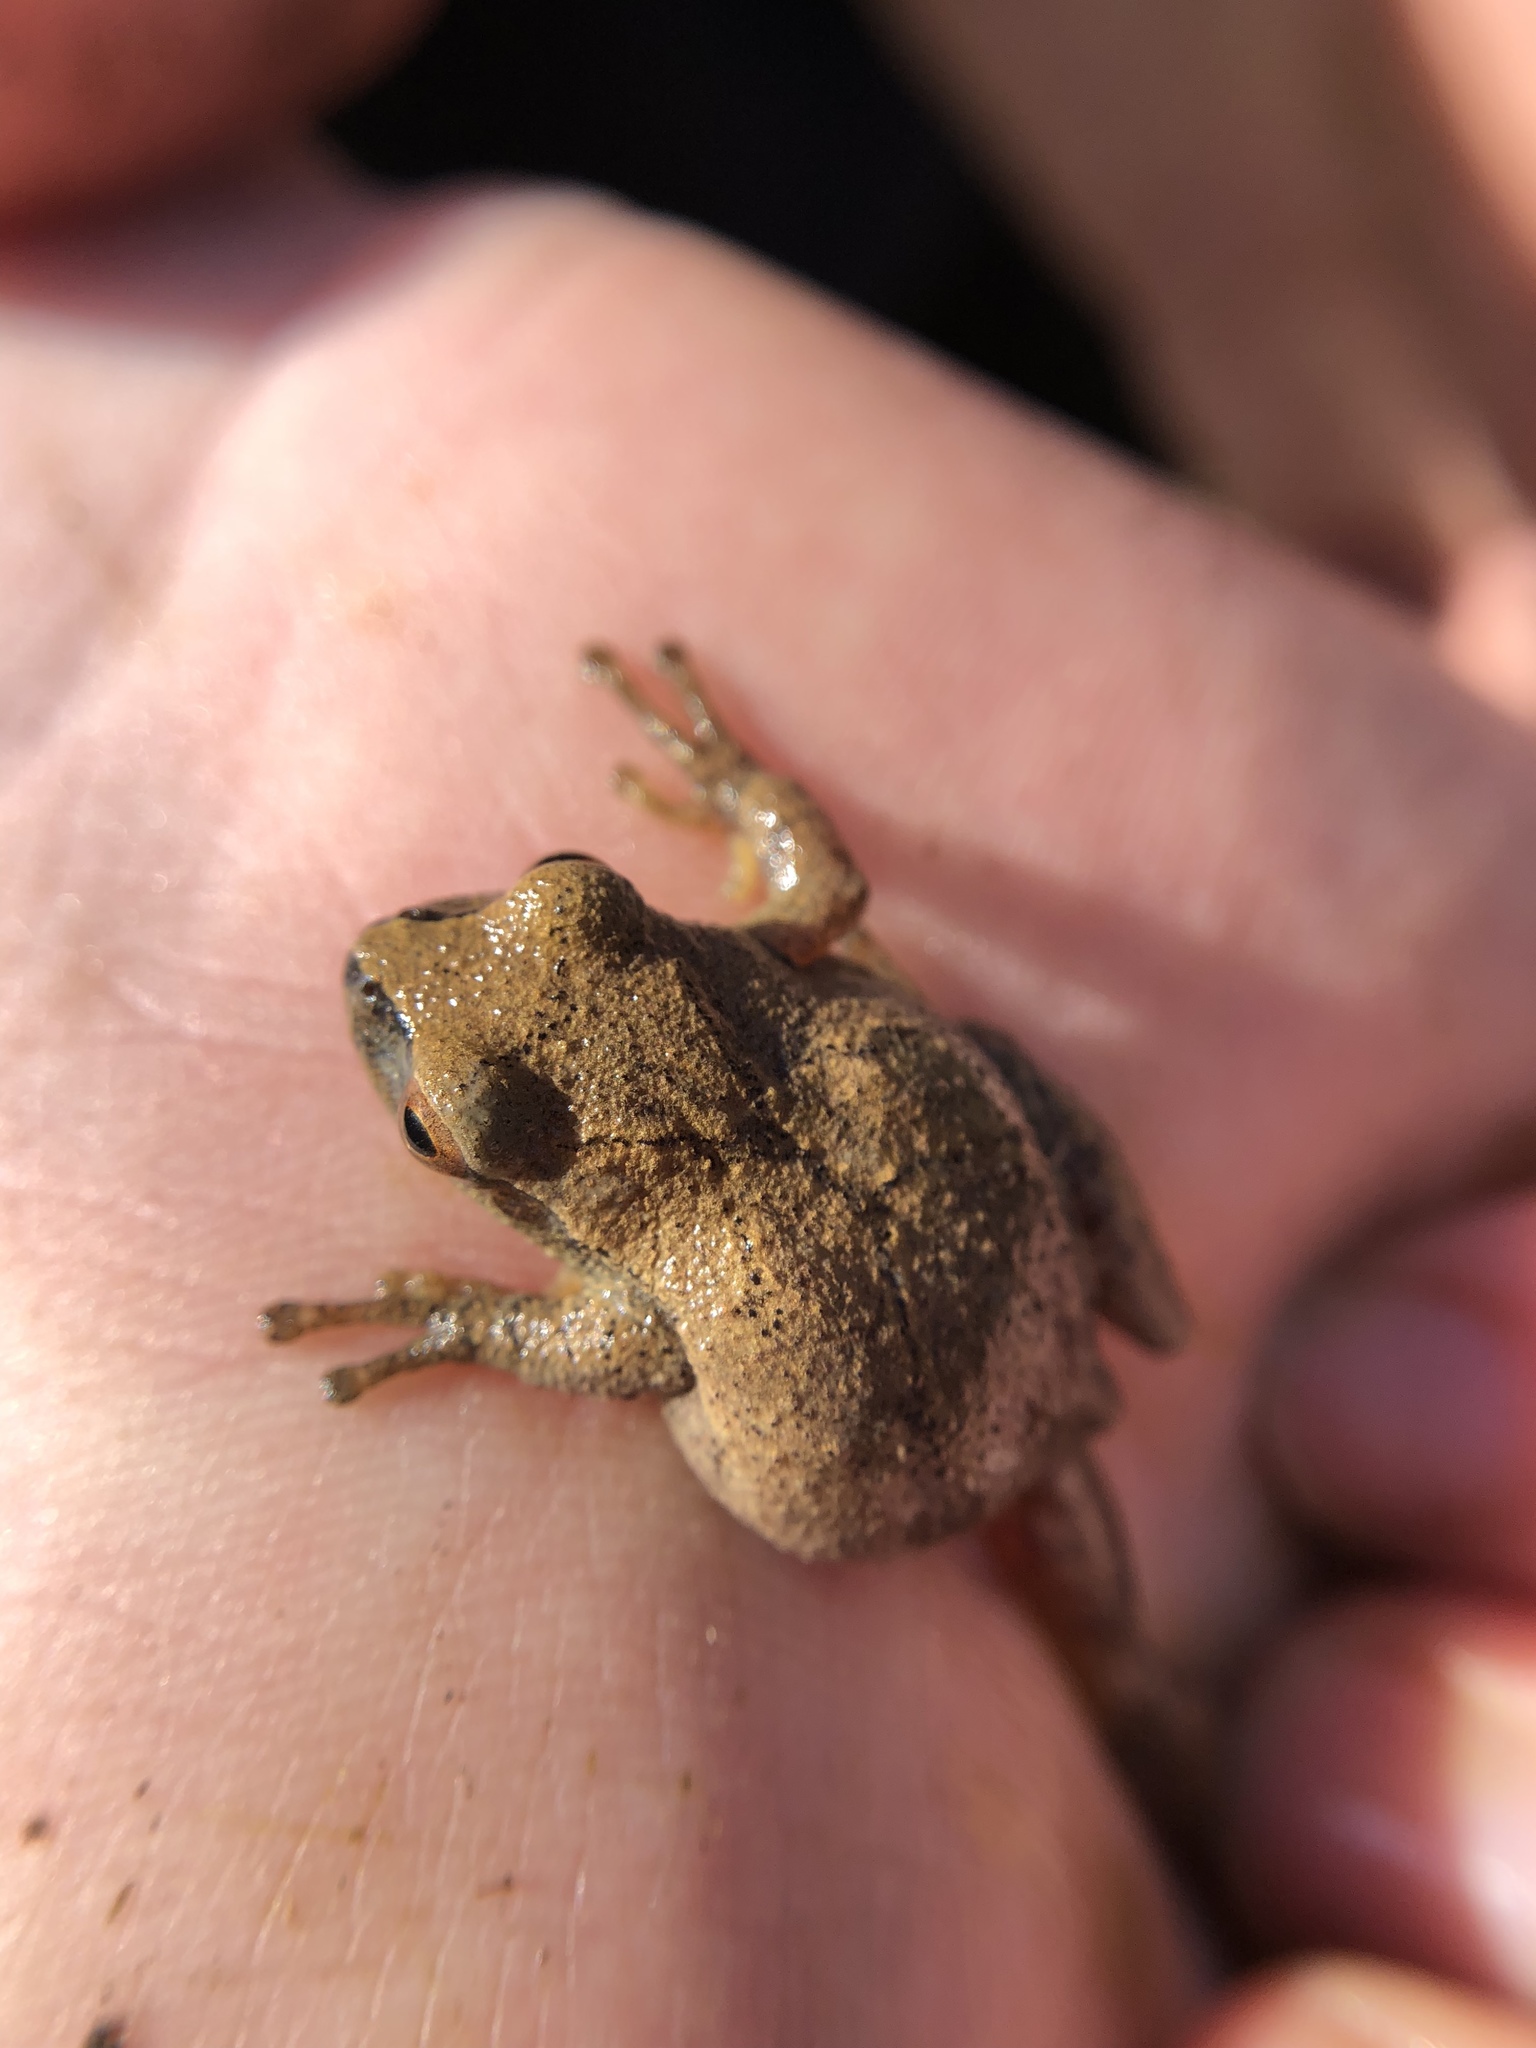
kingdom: Animalia
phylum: Chordata
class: Amphibia
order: Anura
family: Hylidae
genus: Pseudacris
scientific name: Pseudacris crucifer
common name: Spring peeper
